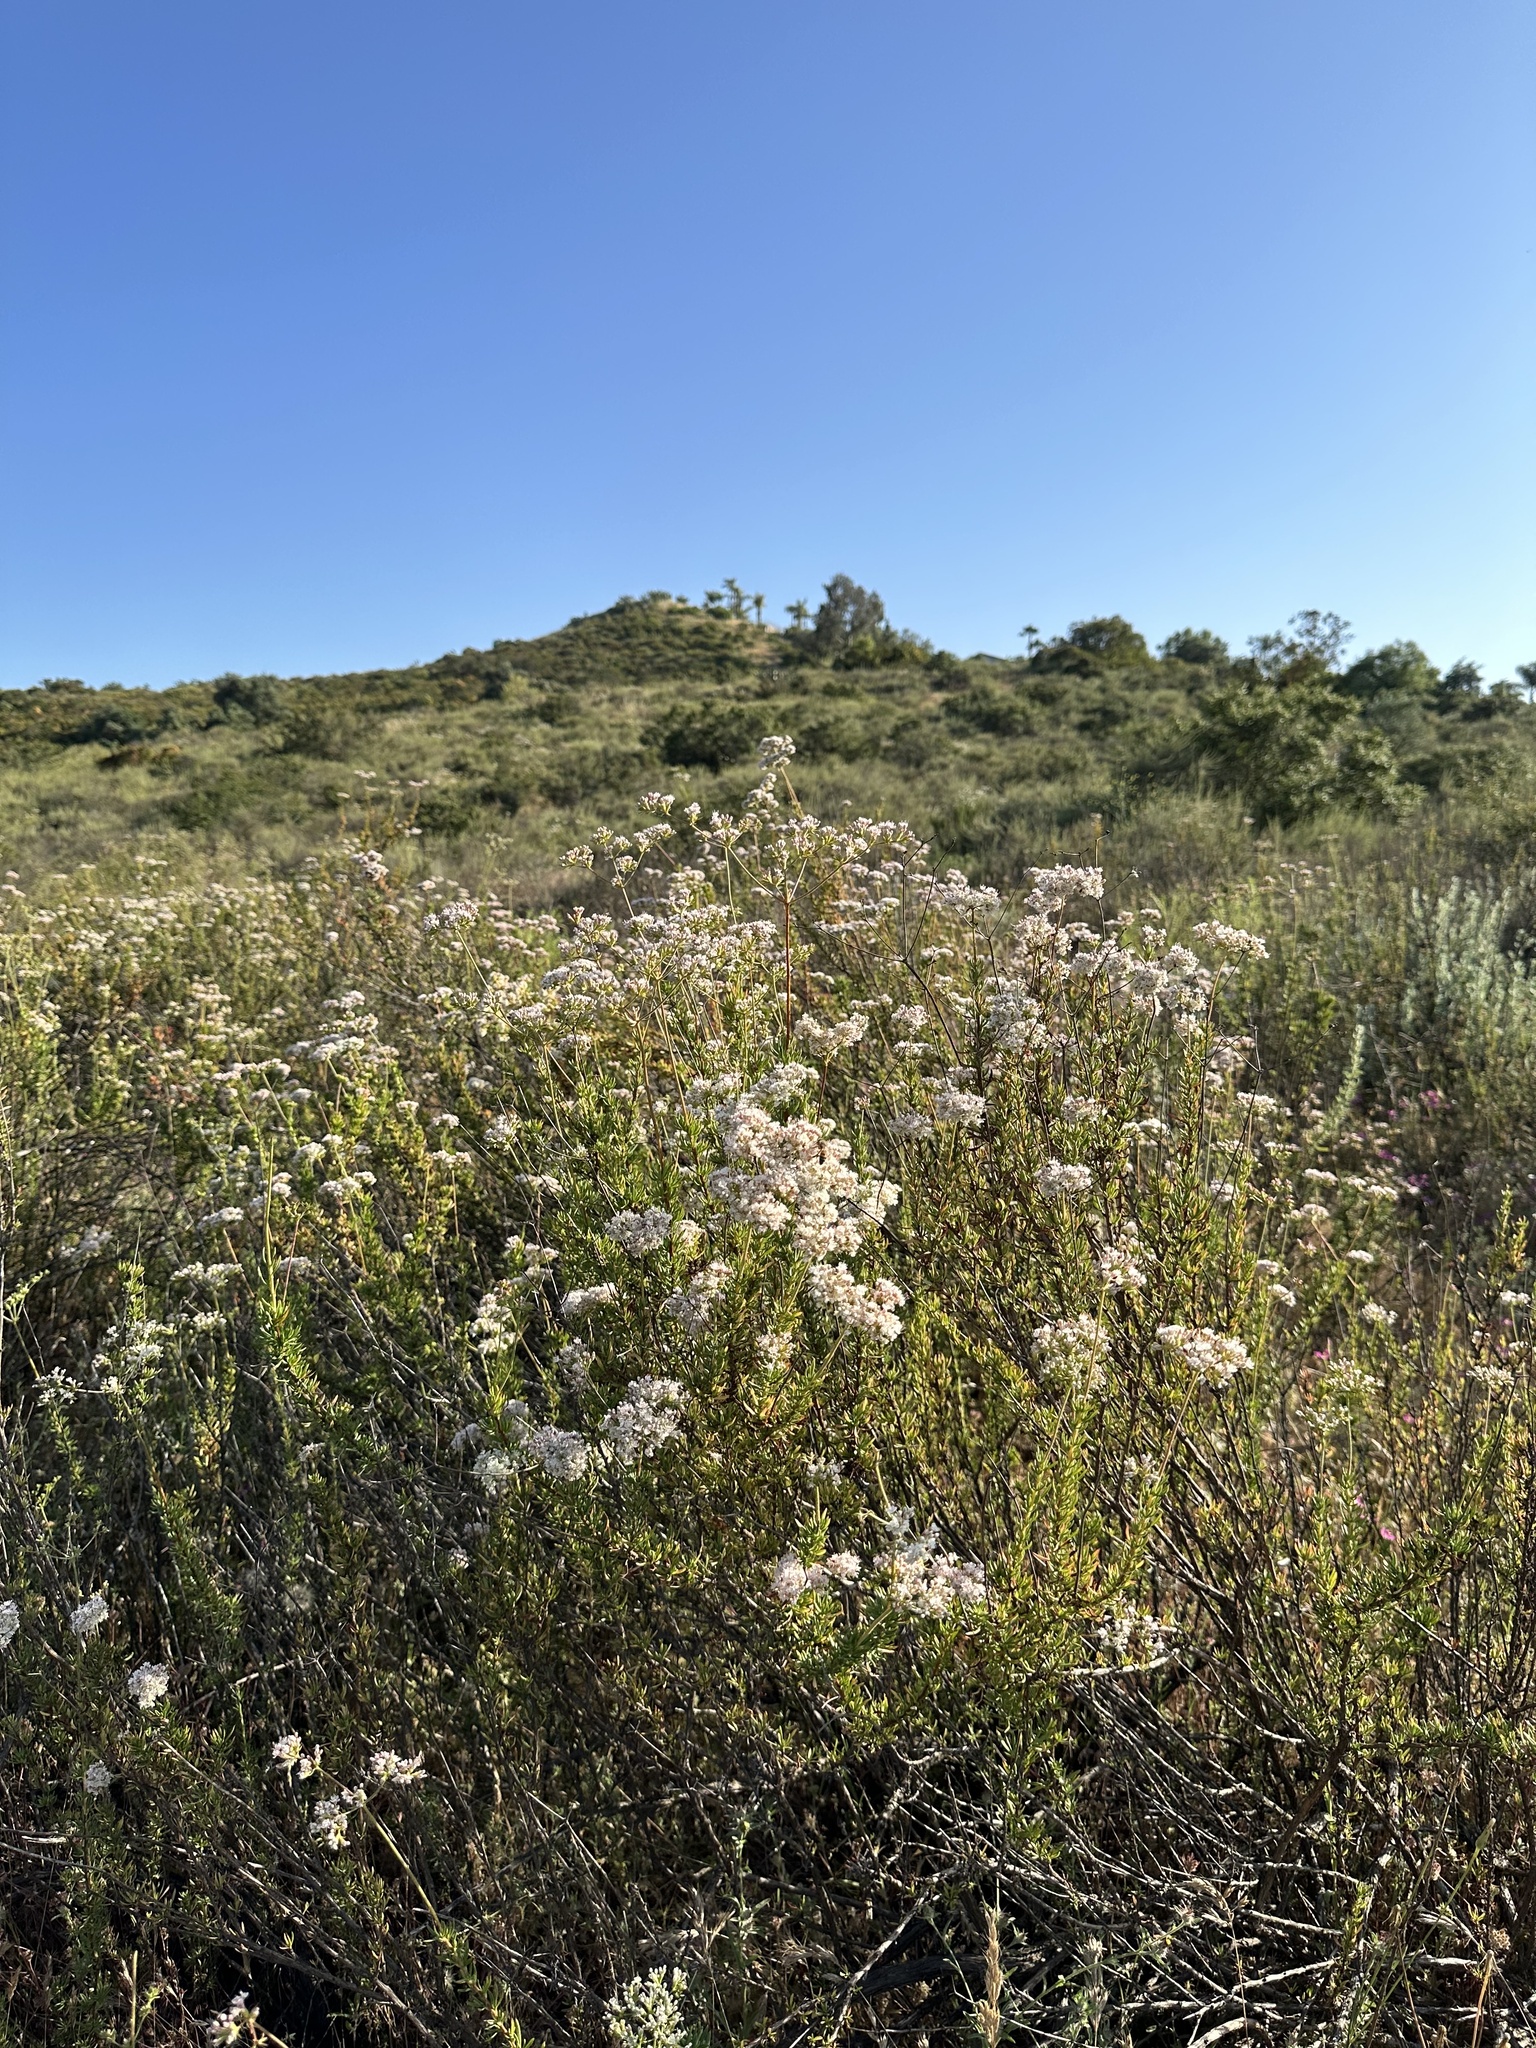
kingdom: Plantae
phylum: Tracheophyta
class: Magnoliopsida
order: Caryophyllales
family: Polygonaceae
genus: Eriogonum
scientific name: Eriogonum fasciculatum
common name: California wild buckwheat
